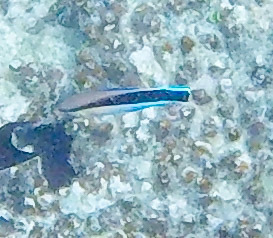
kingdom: Animalia
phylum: Chordata
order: Perciformes
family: Labridae
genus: Labroides
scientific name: Labroides dimidiatus
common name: Blue diesel wrasse
